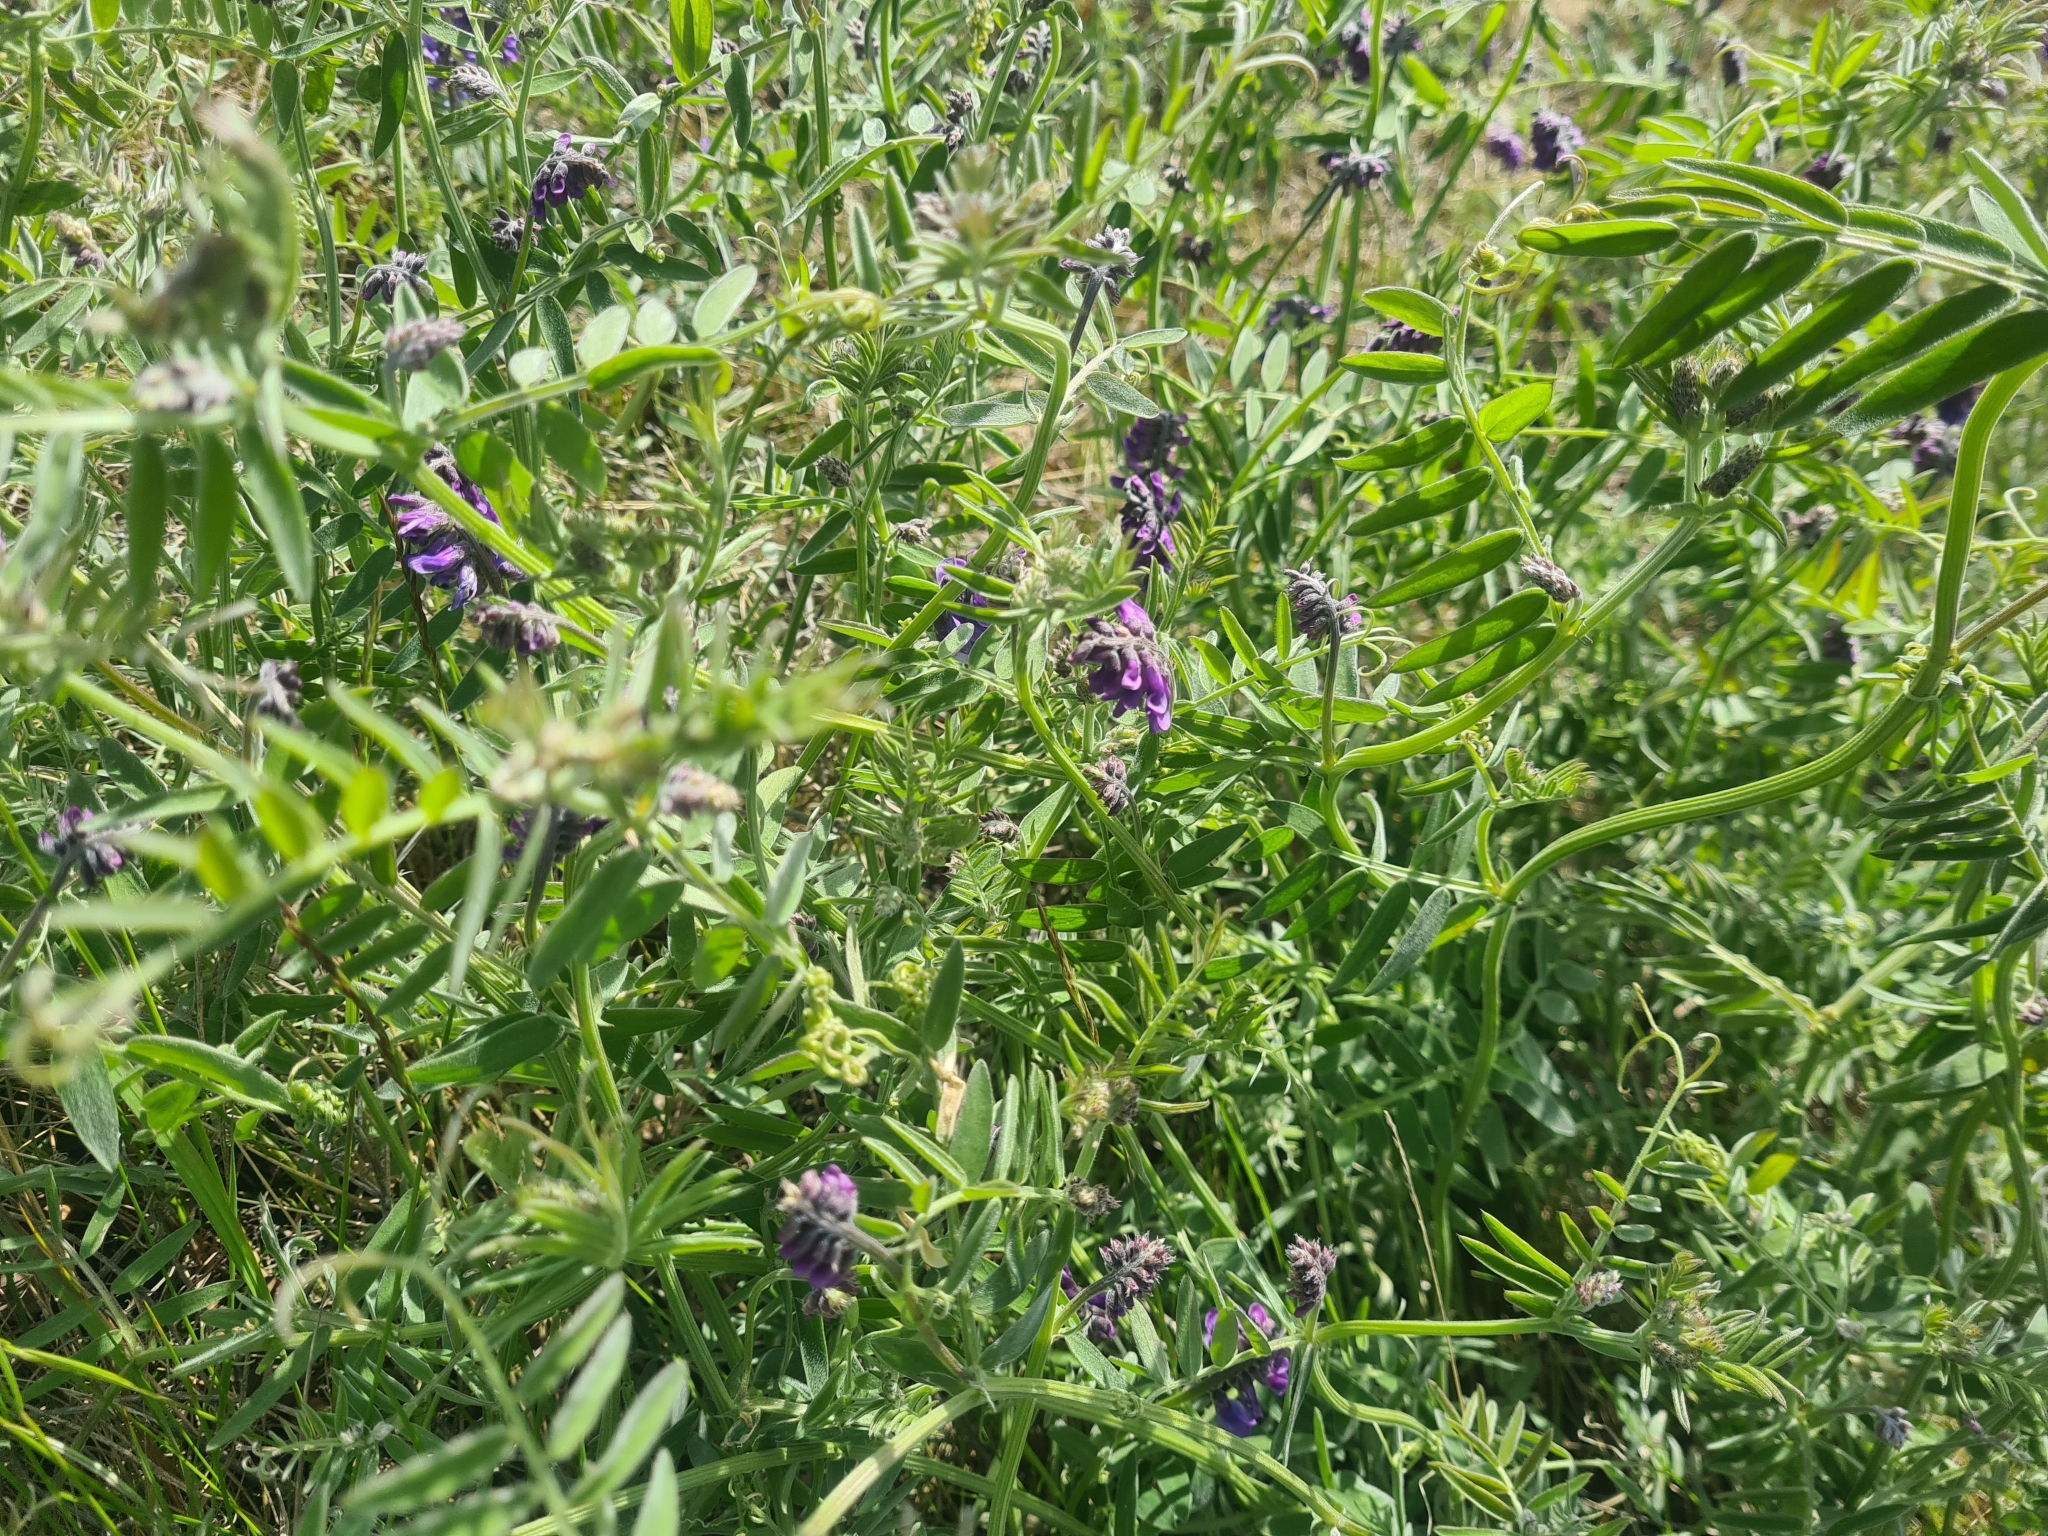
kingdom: Plantae
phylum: Tracheophyta
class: Magnoliopsida
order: Fabales
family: Fabaceae
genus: Vicia
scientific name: Vicia cracca
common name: Bird vetch
